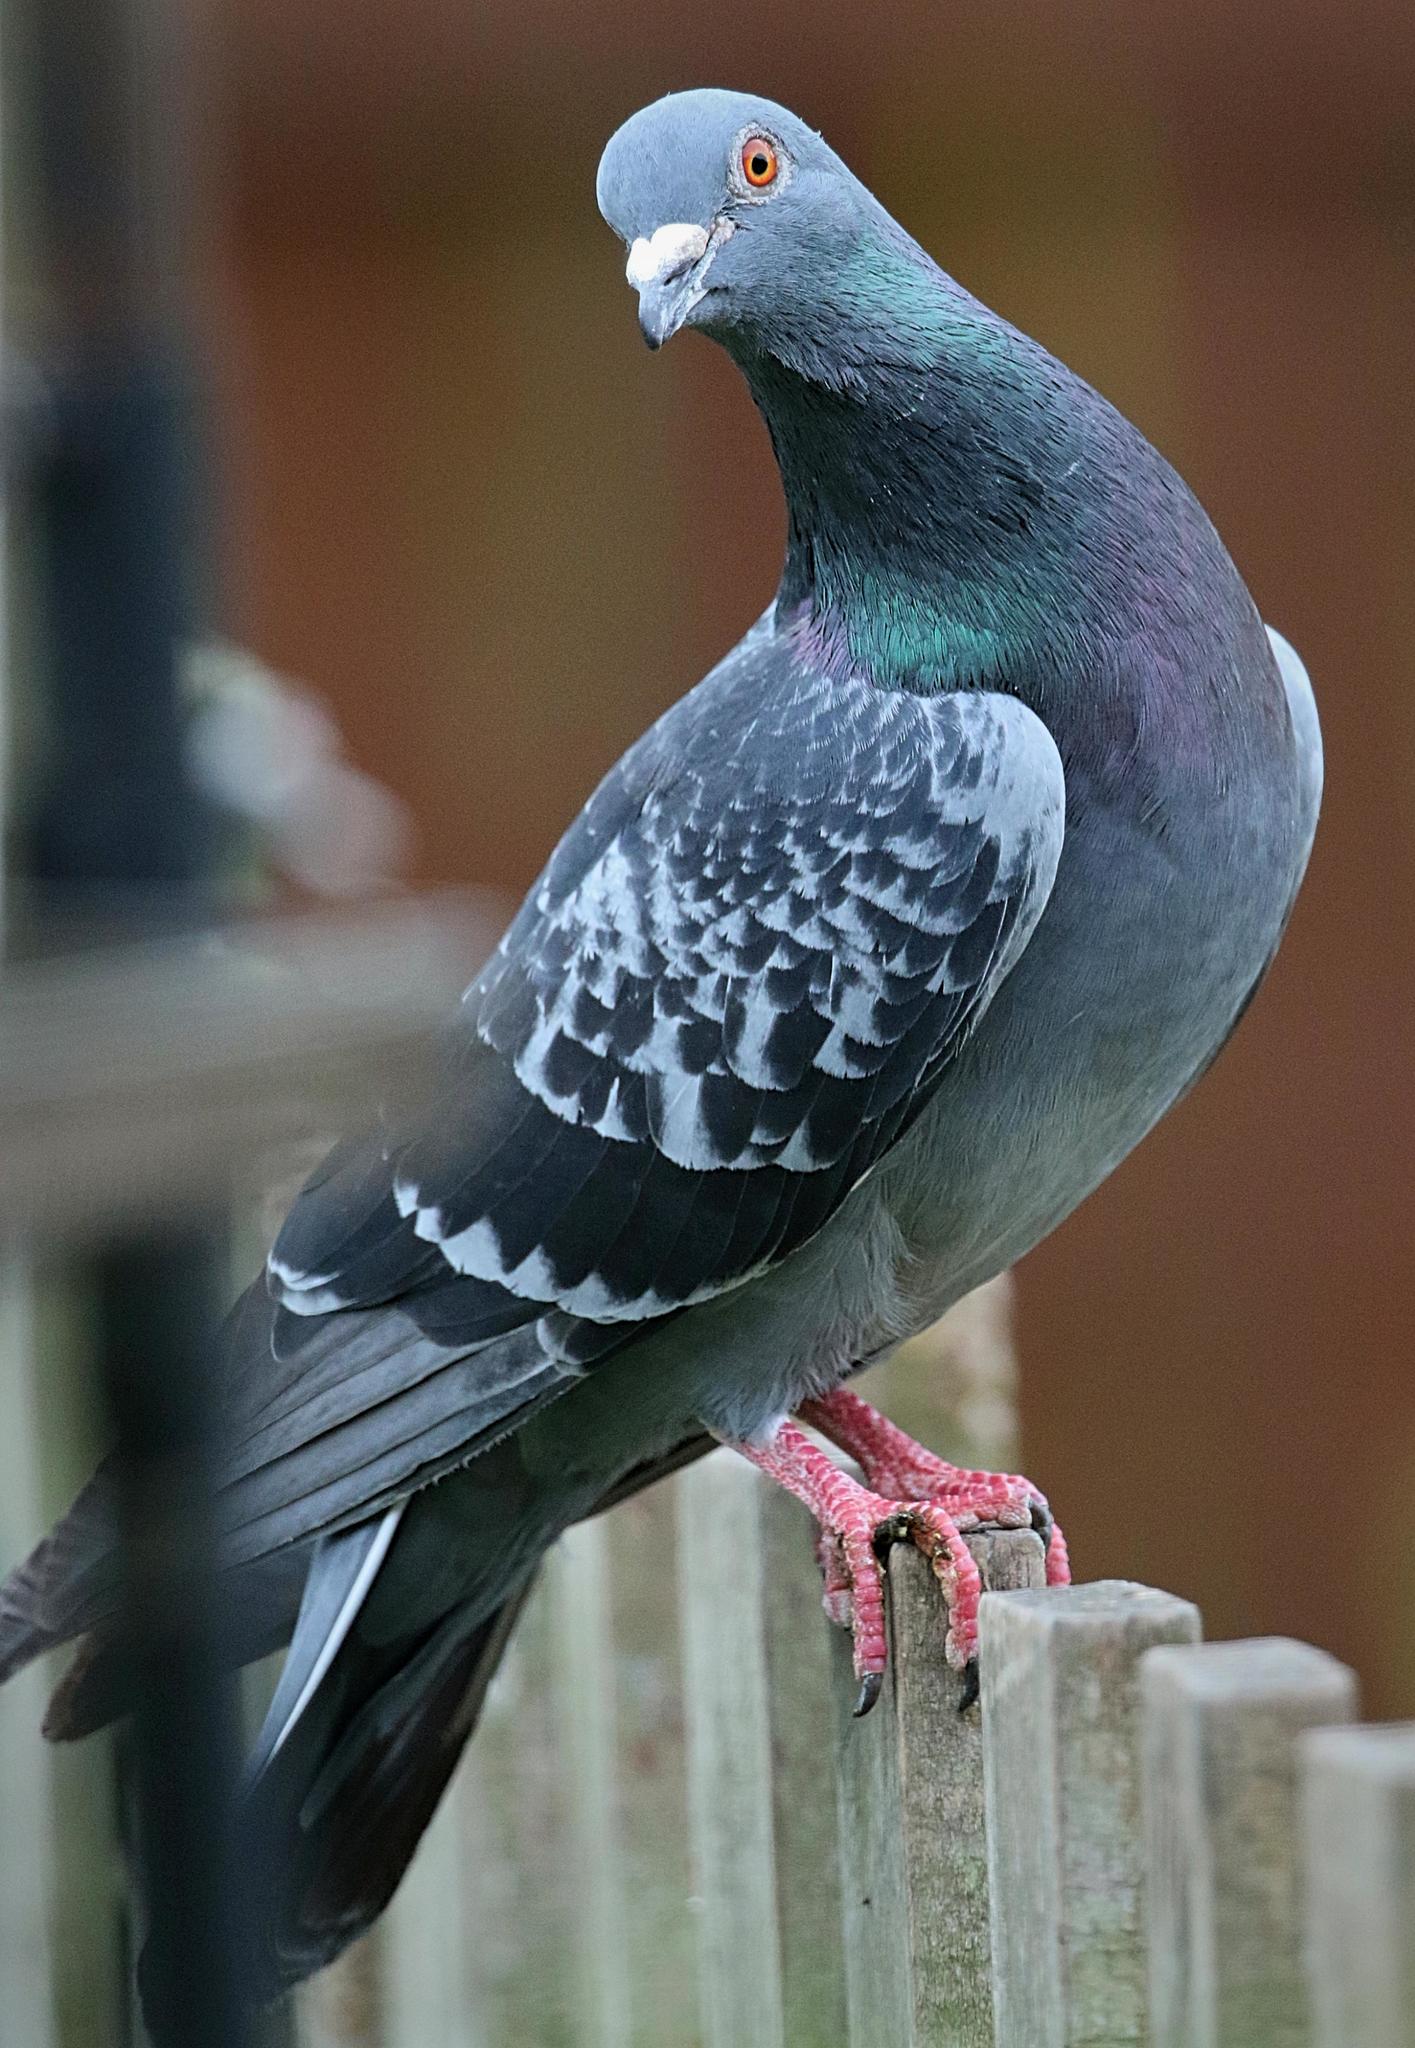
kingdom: Animalia
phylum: Chordata
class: Aves
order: Columbiformes
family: Columbidae
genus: Columba
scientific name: Columba livia
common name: Rock pigeon
